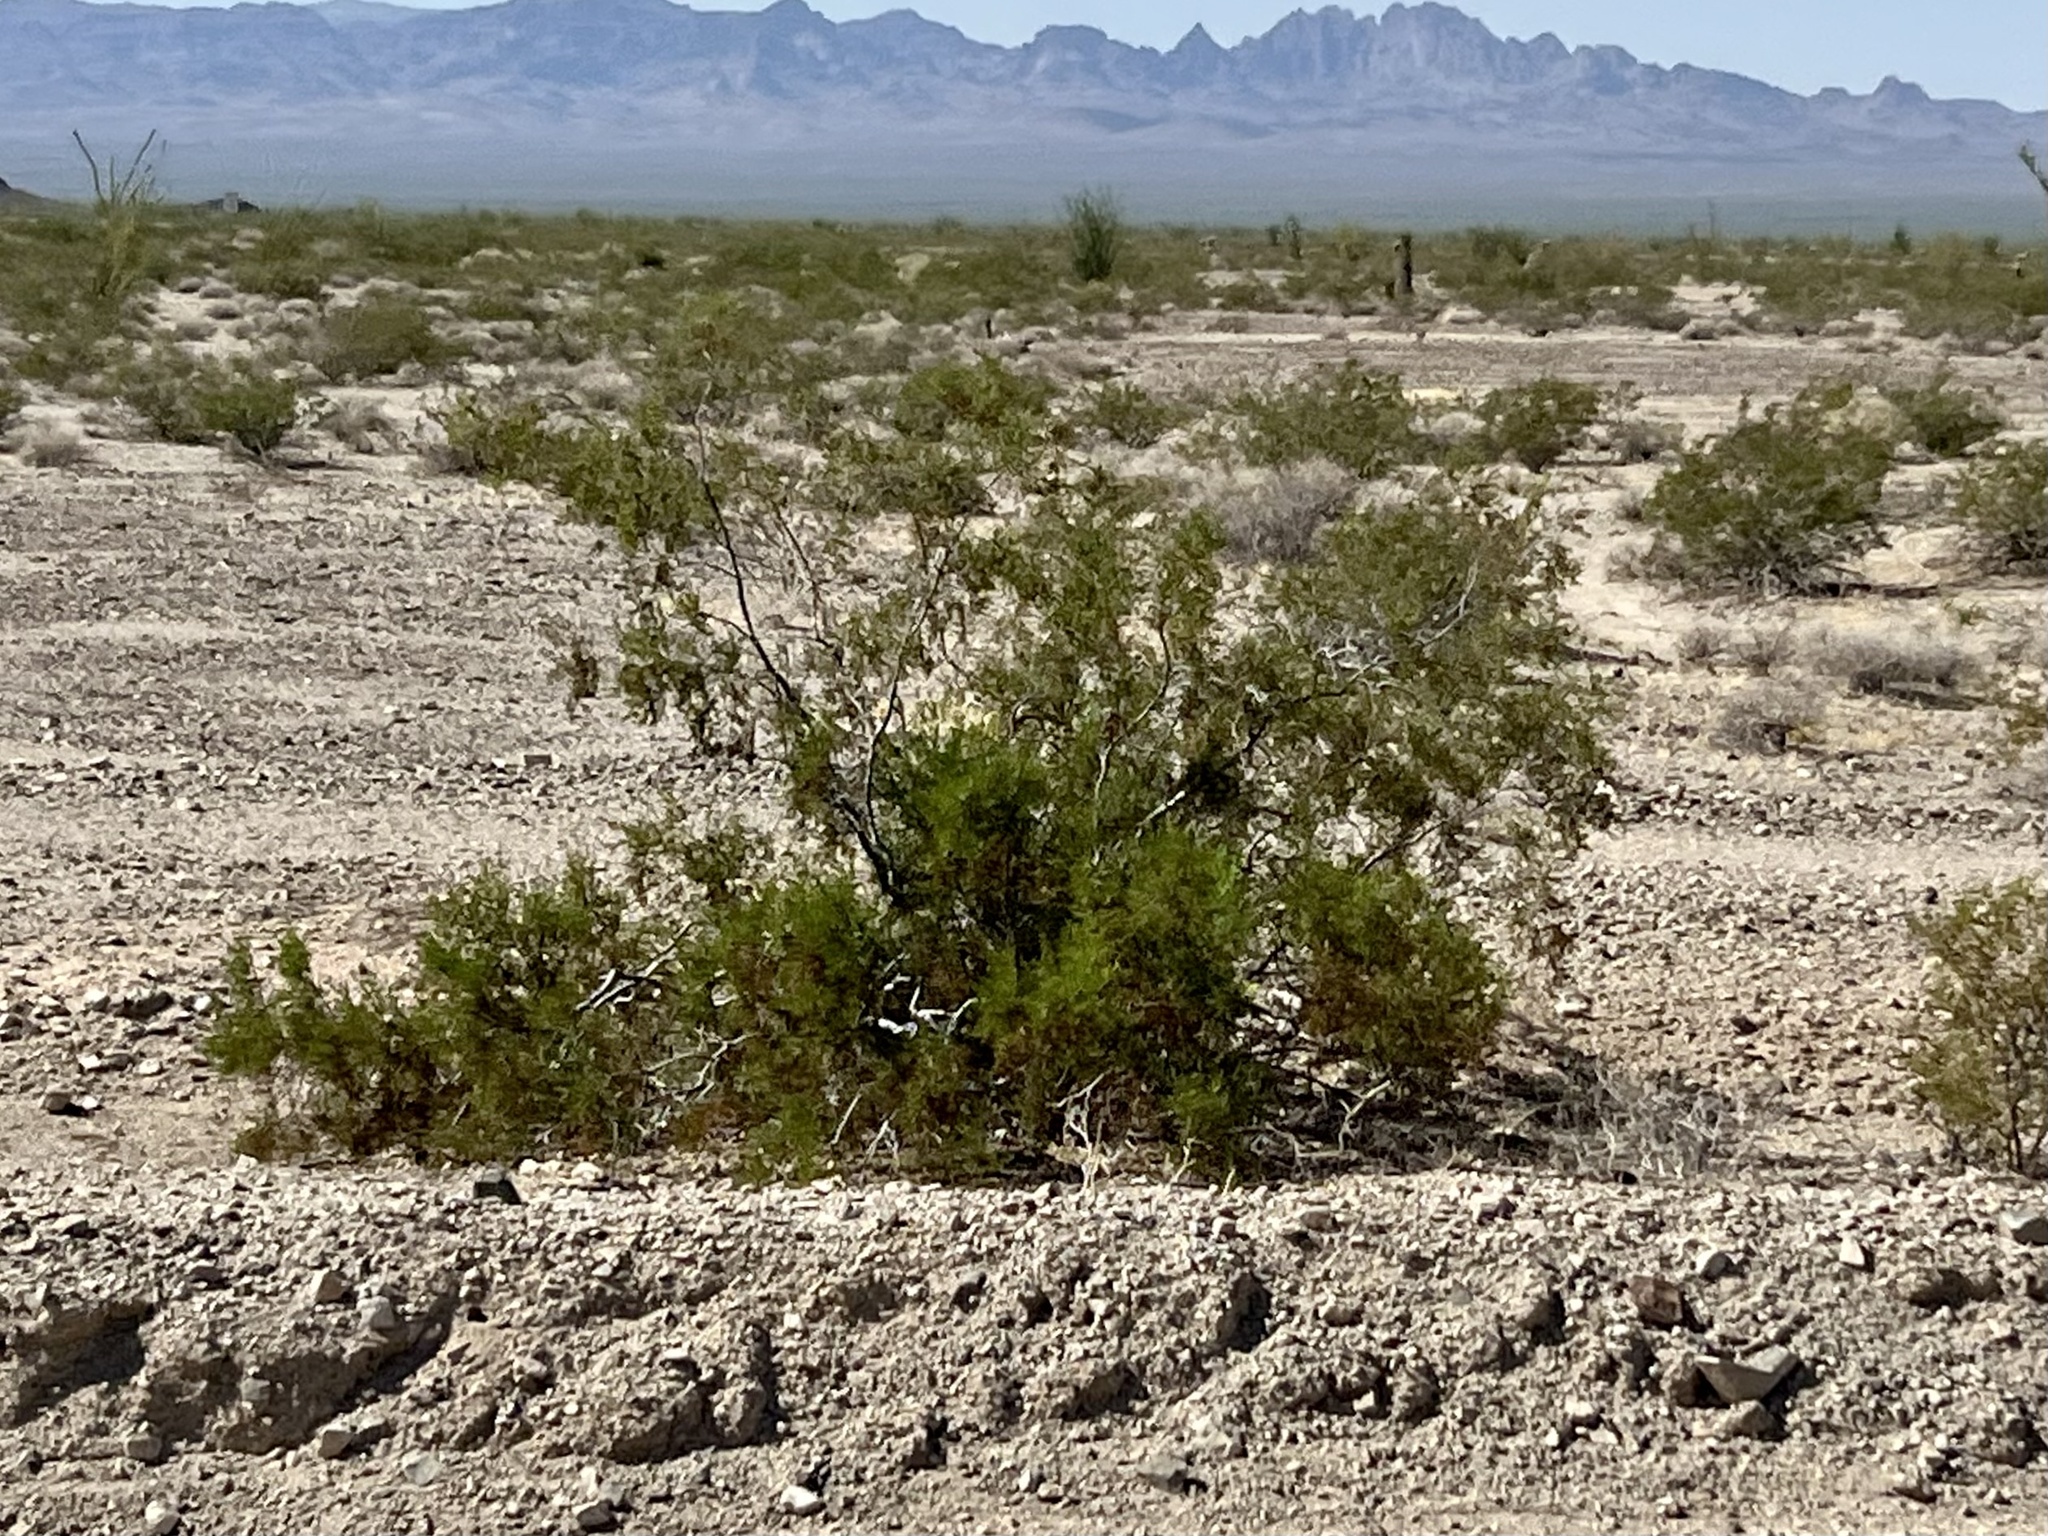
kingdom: Plantae
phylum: Tracheophyta
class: Magnoliopsida
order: Zygophyllales
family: Zygophyllaceae
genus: Larrea
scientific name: Larrea tridentata
